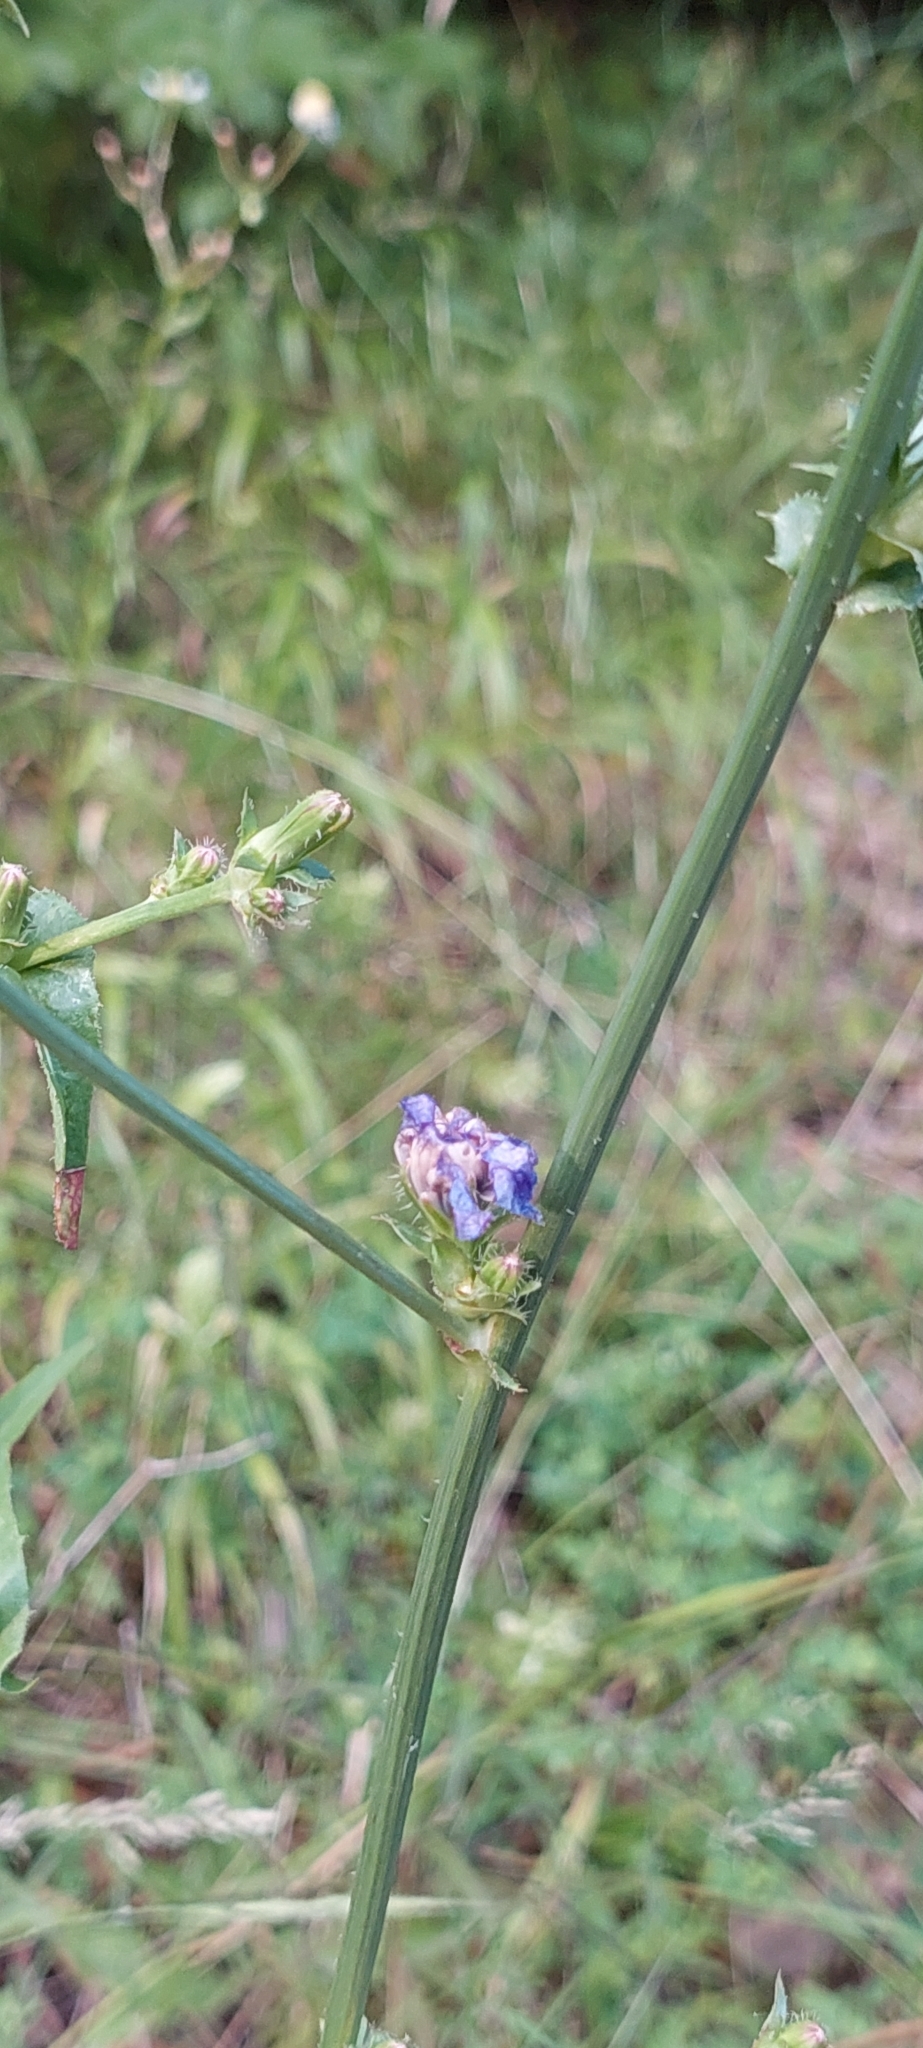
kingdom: Plantae
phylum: Tracheophyta
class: Magnoliopsida
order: Asterales
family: Asteraceae
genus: Cichorium
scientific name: Cichorium intybus
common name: Chicory
